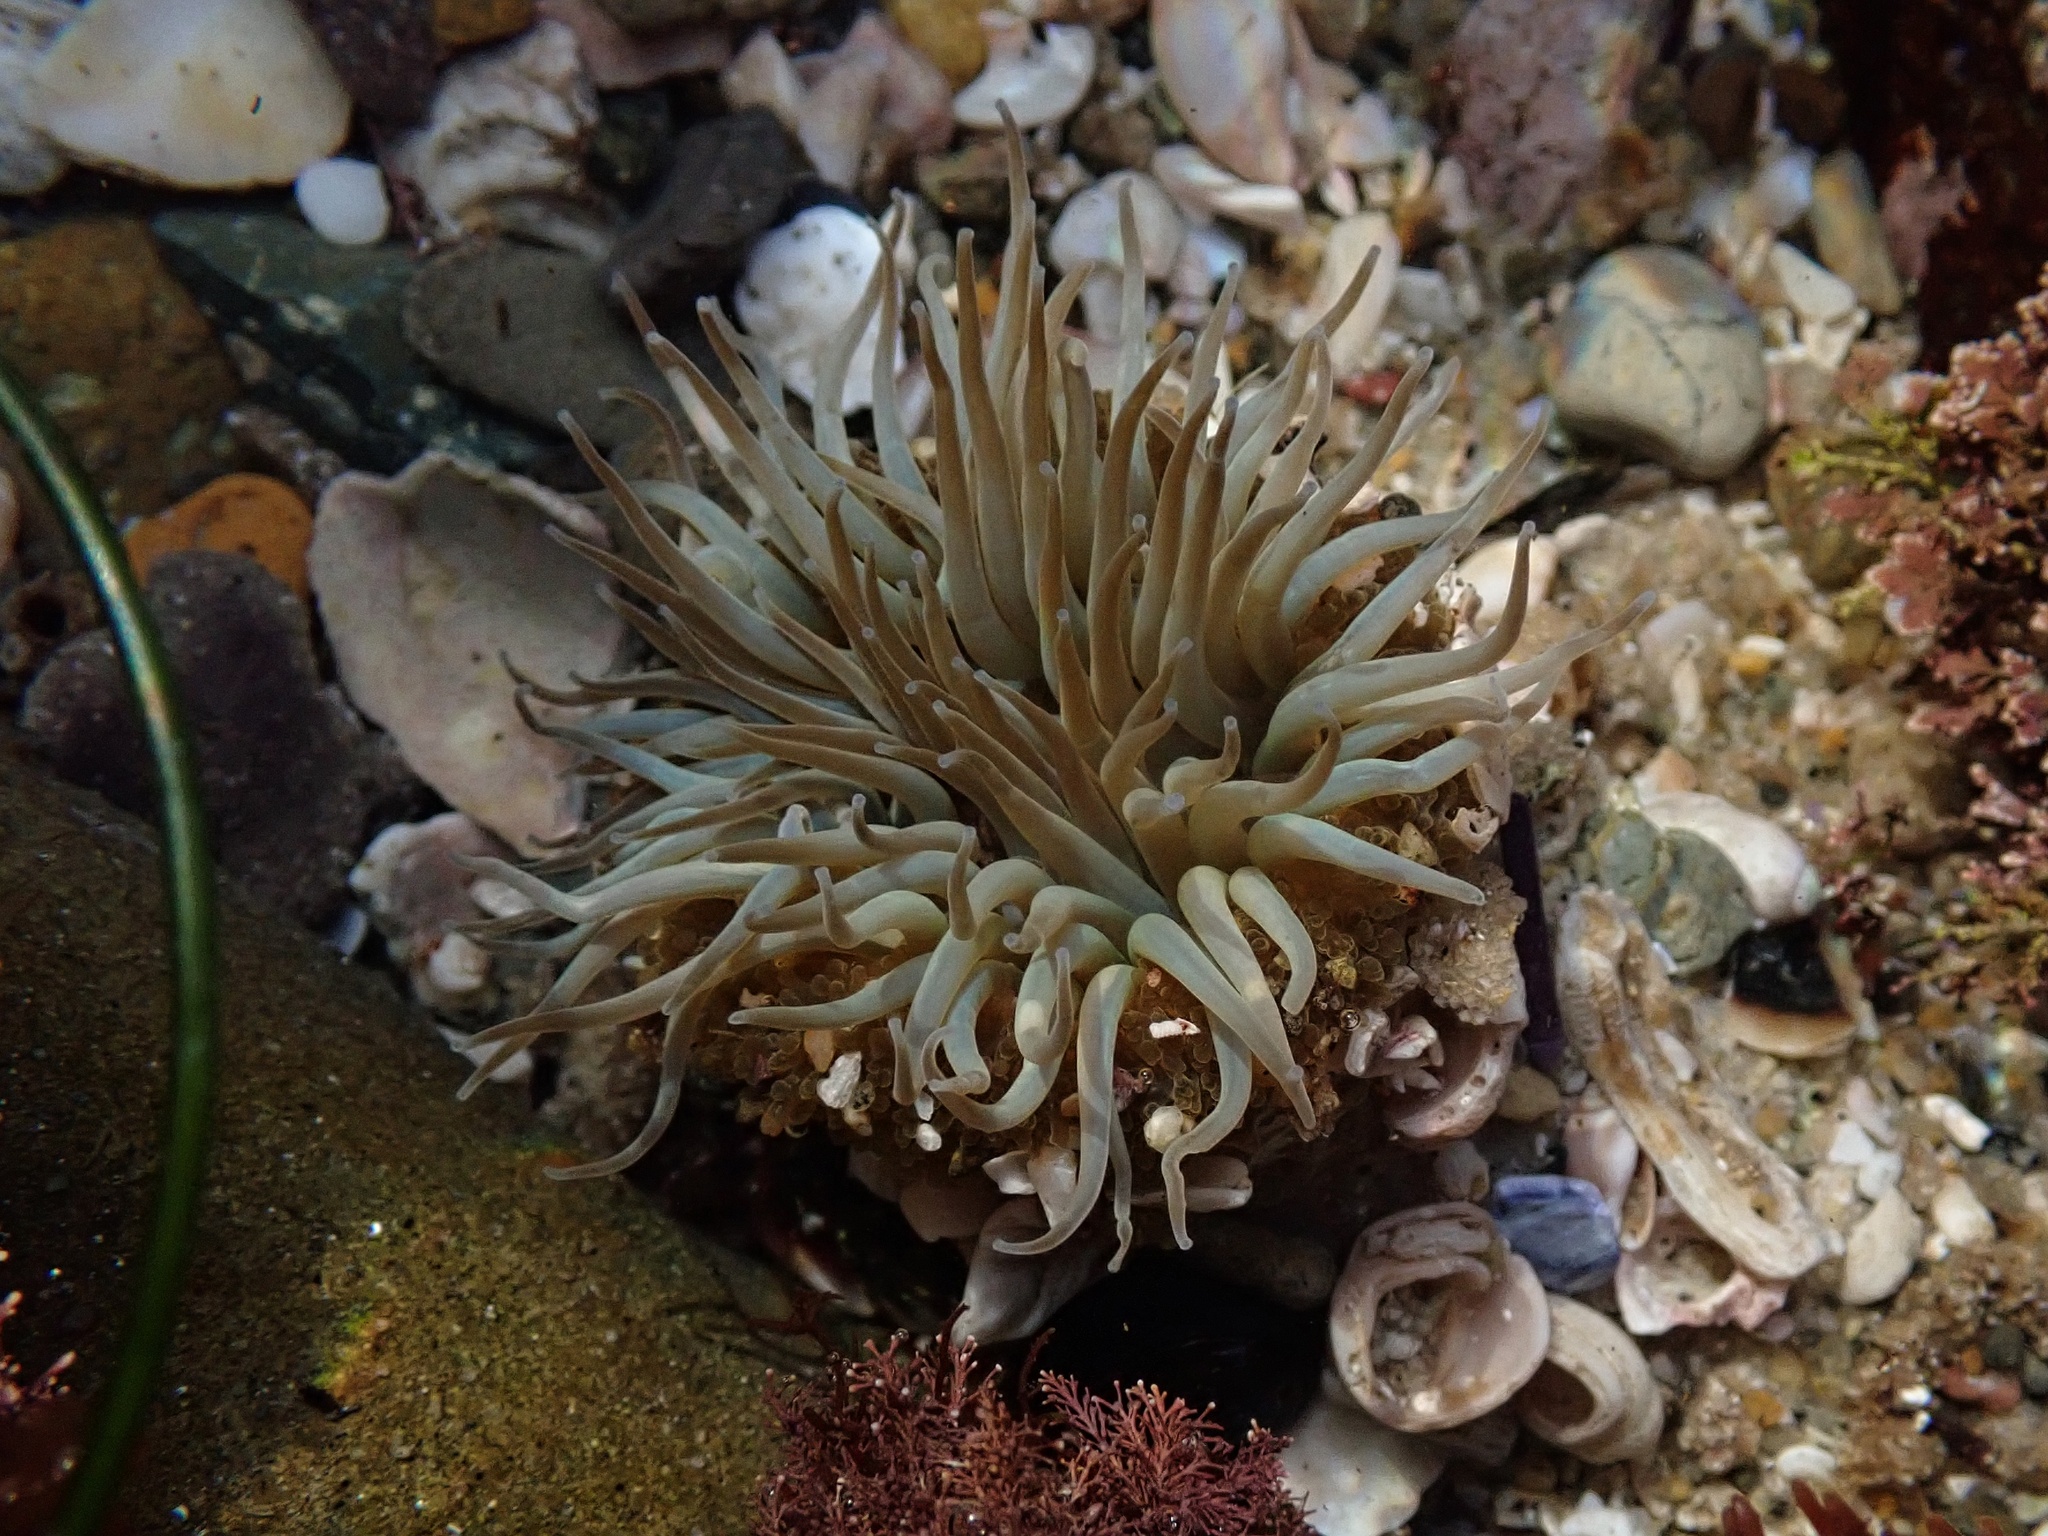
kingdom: Animalia
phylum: Cnidaria
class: Anthozoa
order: Actiniaria
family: Actiniidae
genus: Anthopleura
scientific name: Anthopleura sola
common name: Sun anemone
